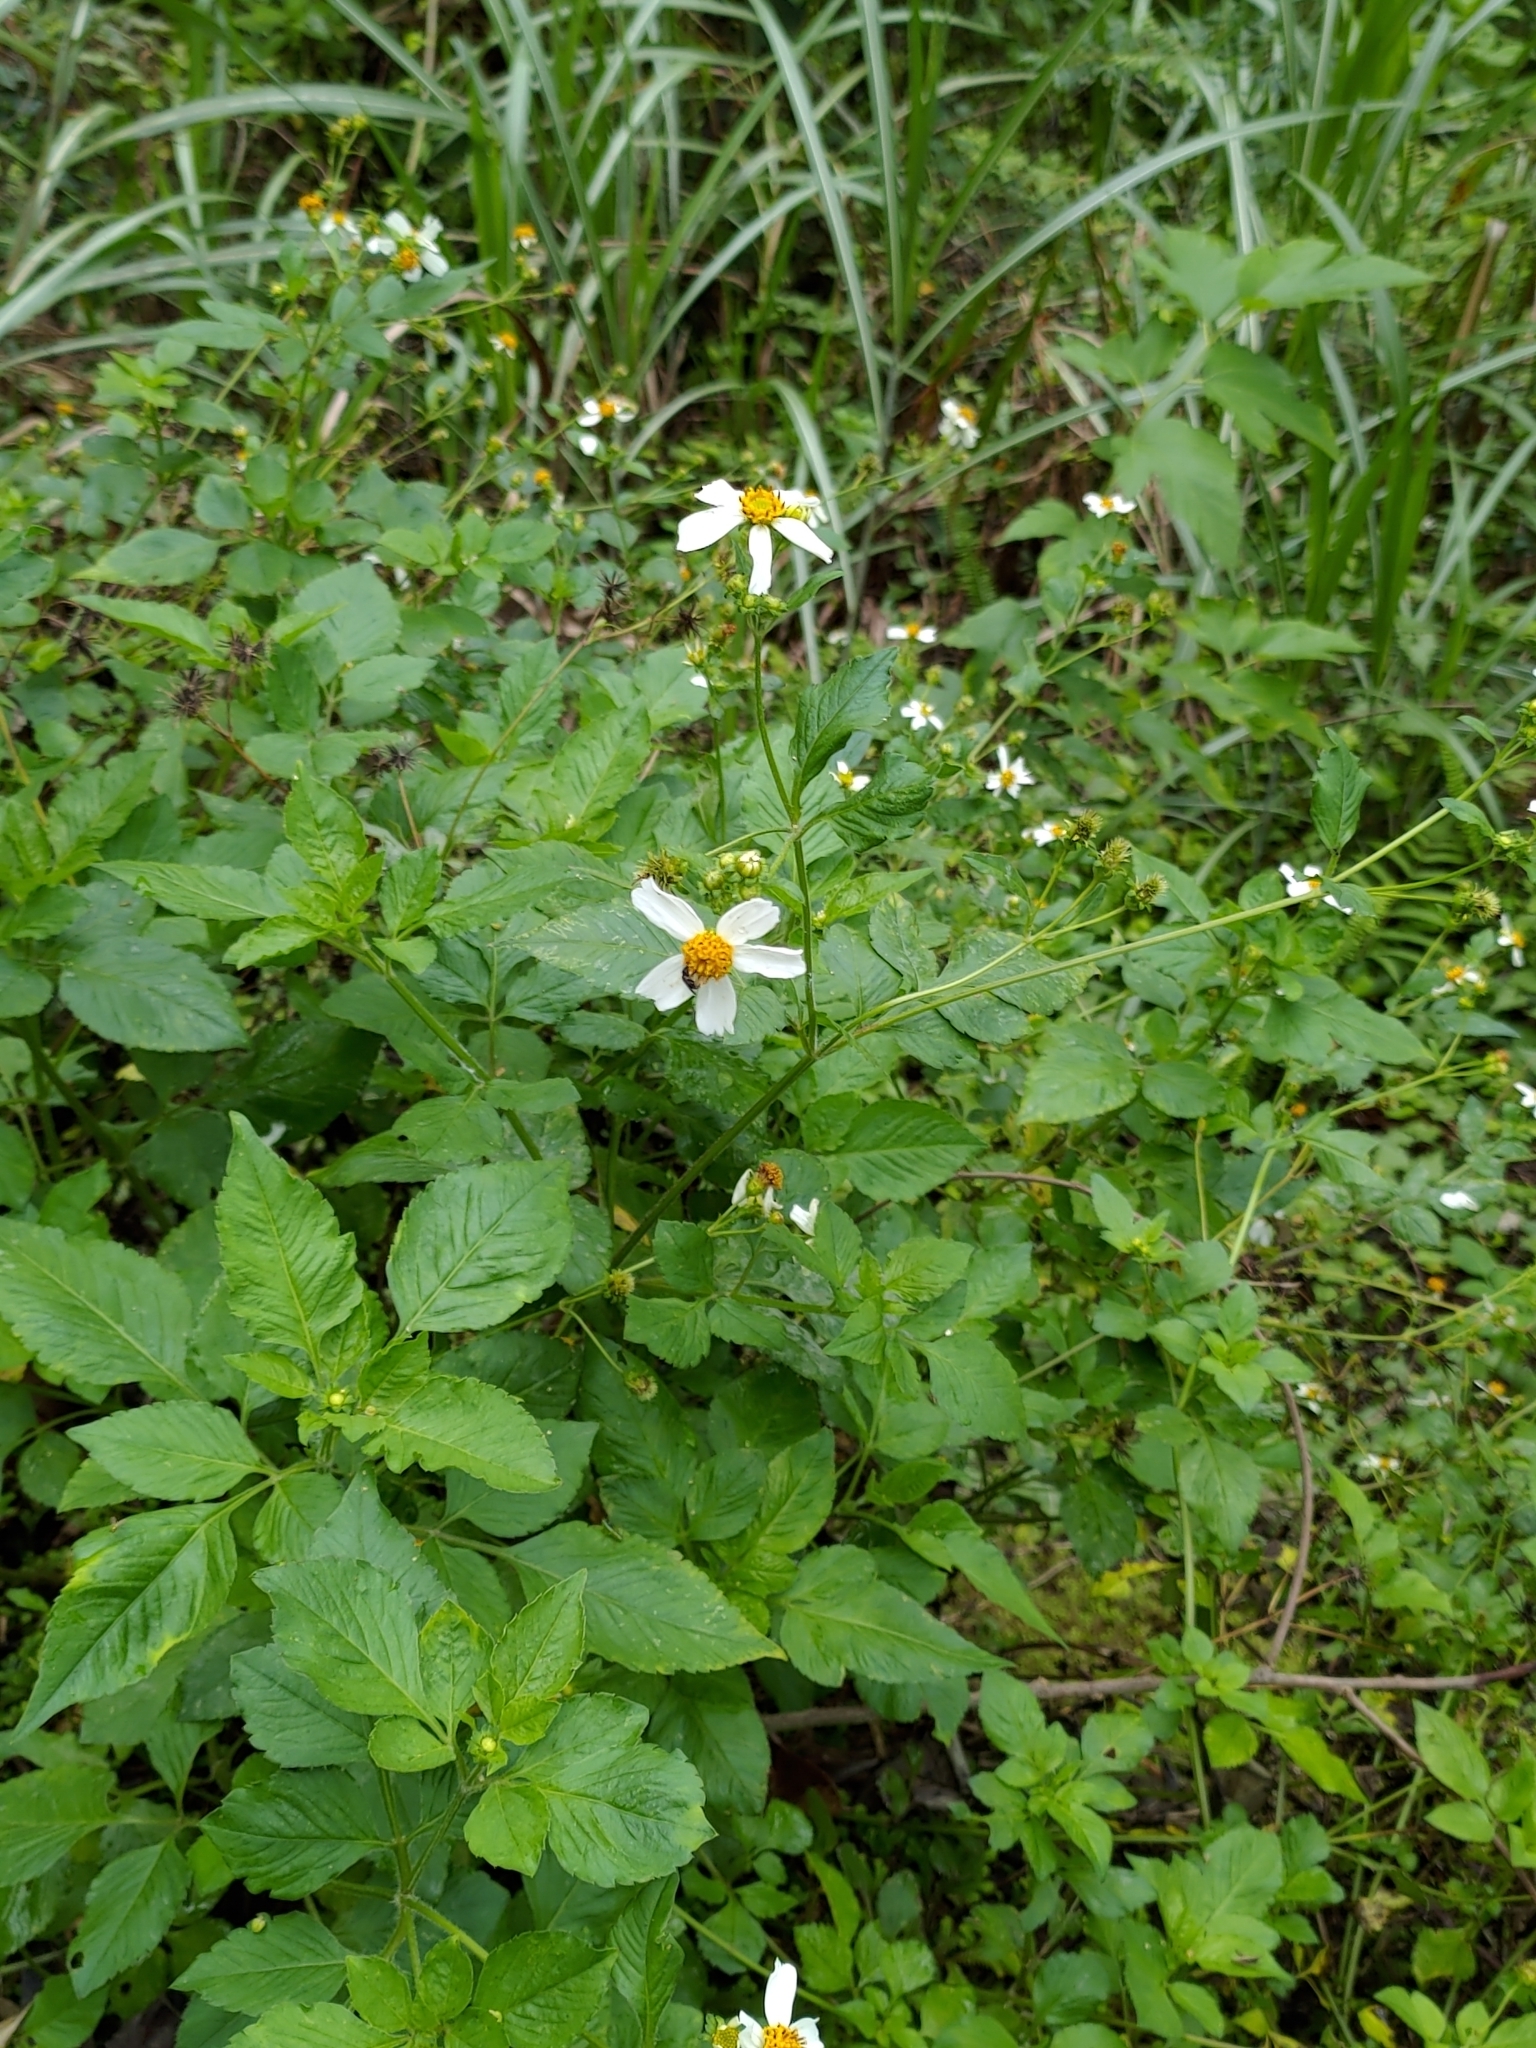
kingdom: Plantae
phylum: Tracheophyta
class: Magnoliopsida
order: Asterales
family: Asteraceae
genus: Bidens
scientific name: Bidens alba
